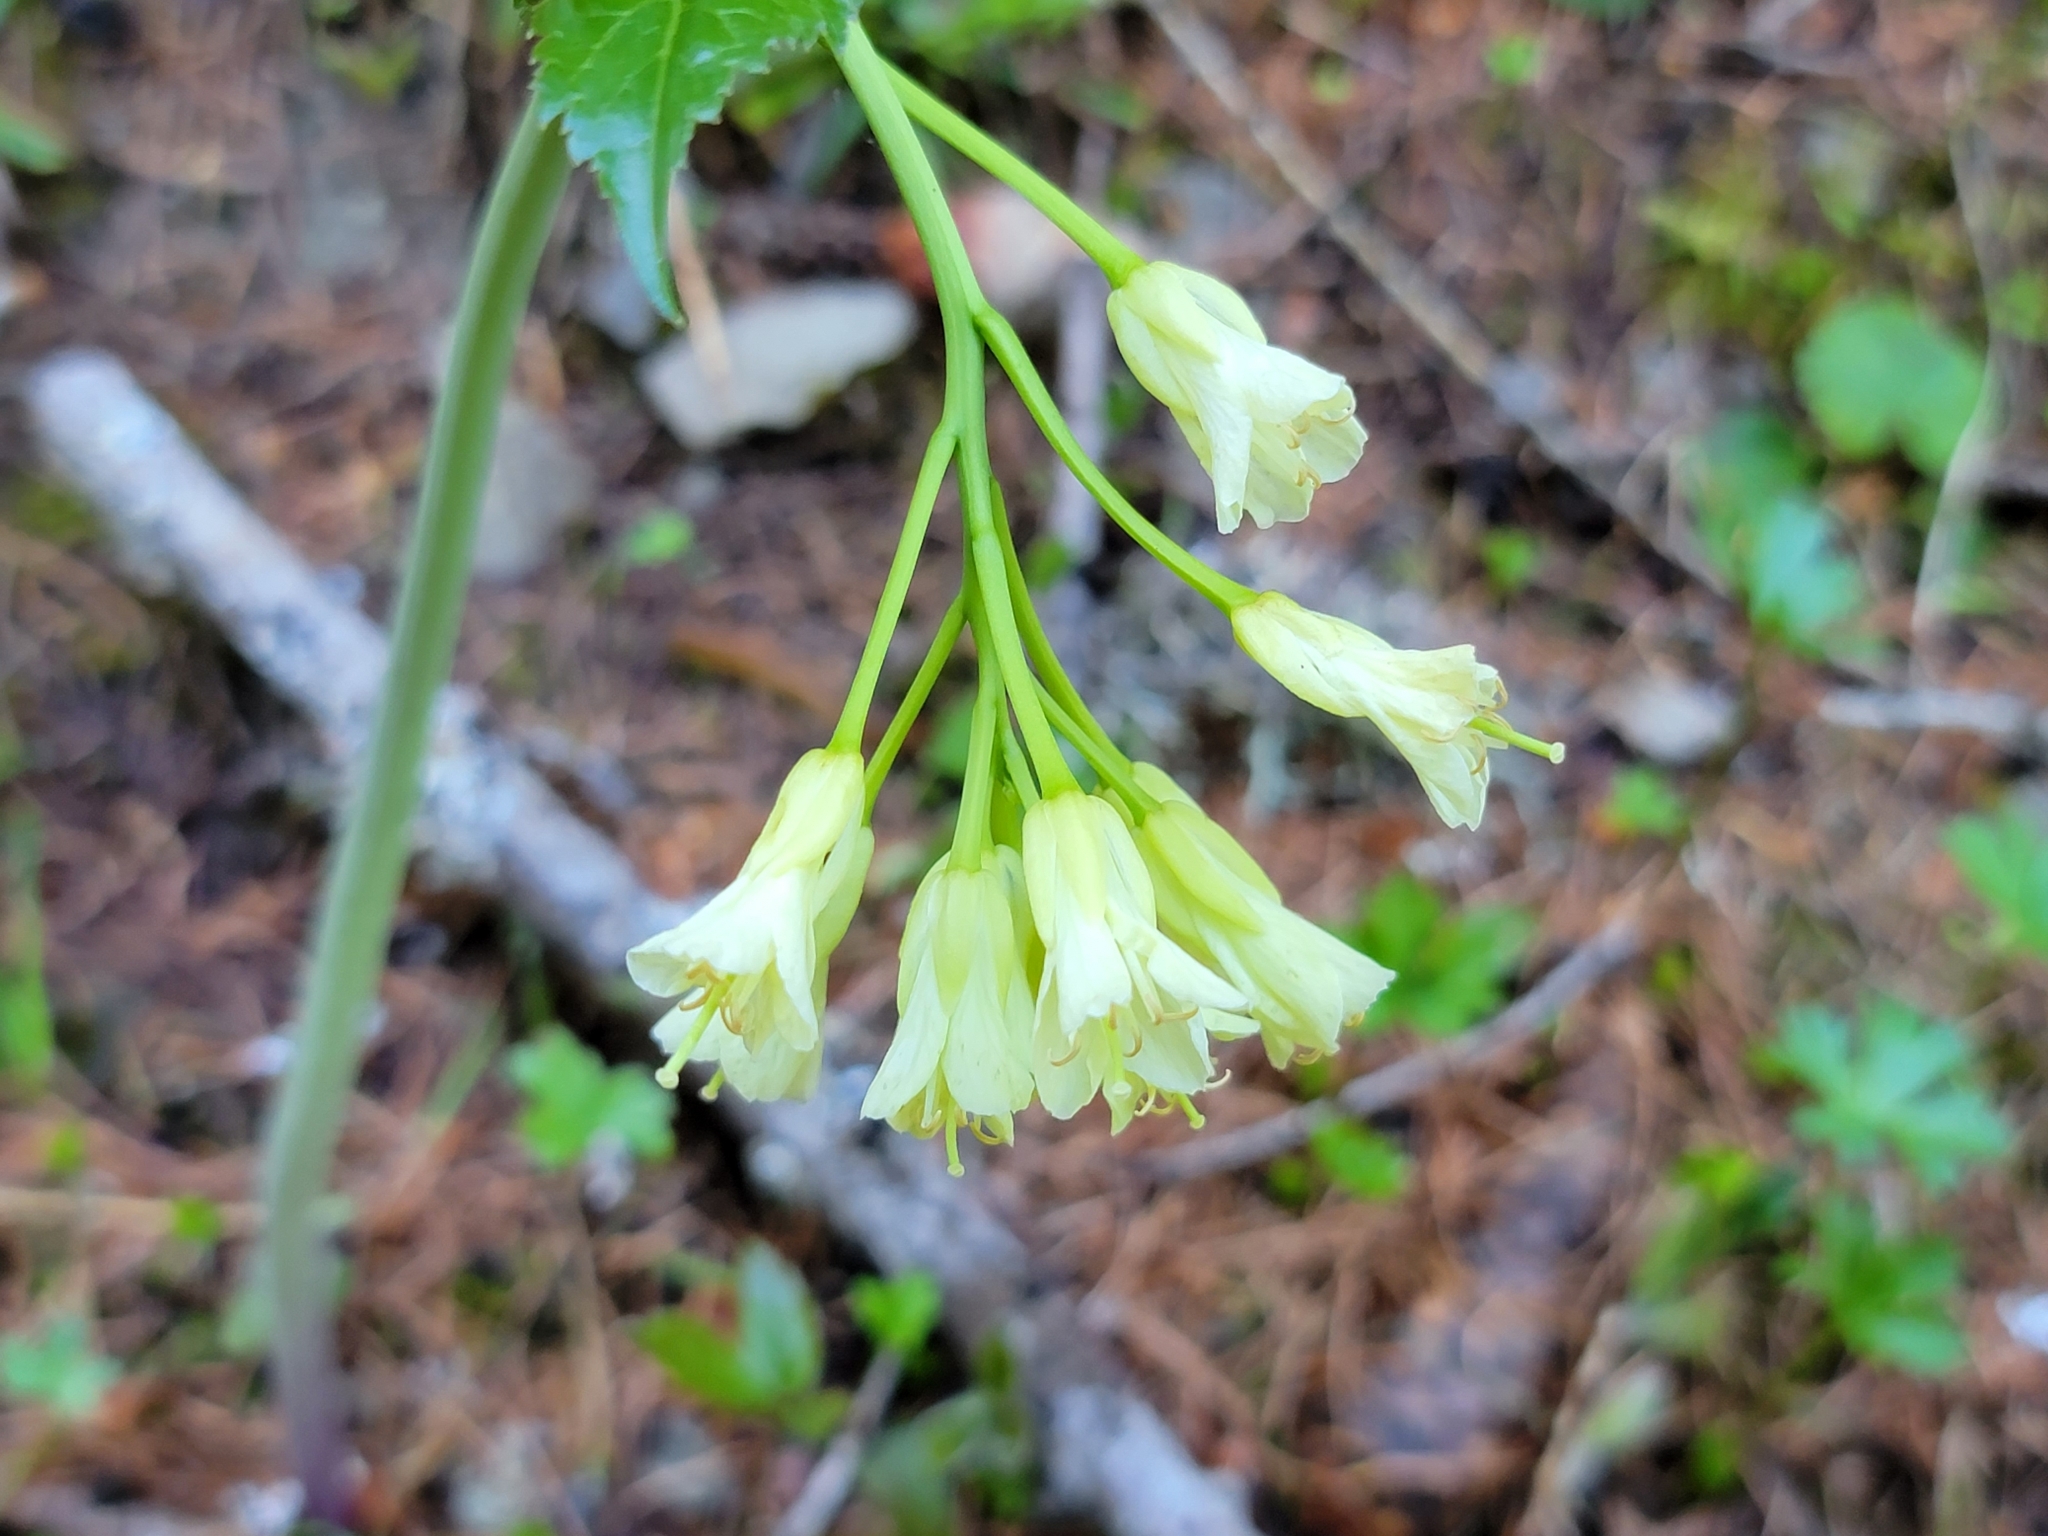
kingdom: Plantae
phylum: Tracheophyta
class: Magnoliopsida
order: Brassicales
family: Brassicaceae
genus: Cardamine
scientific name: Cardamine enneaphyllos
